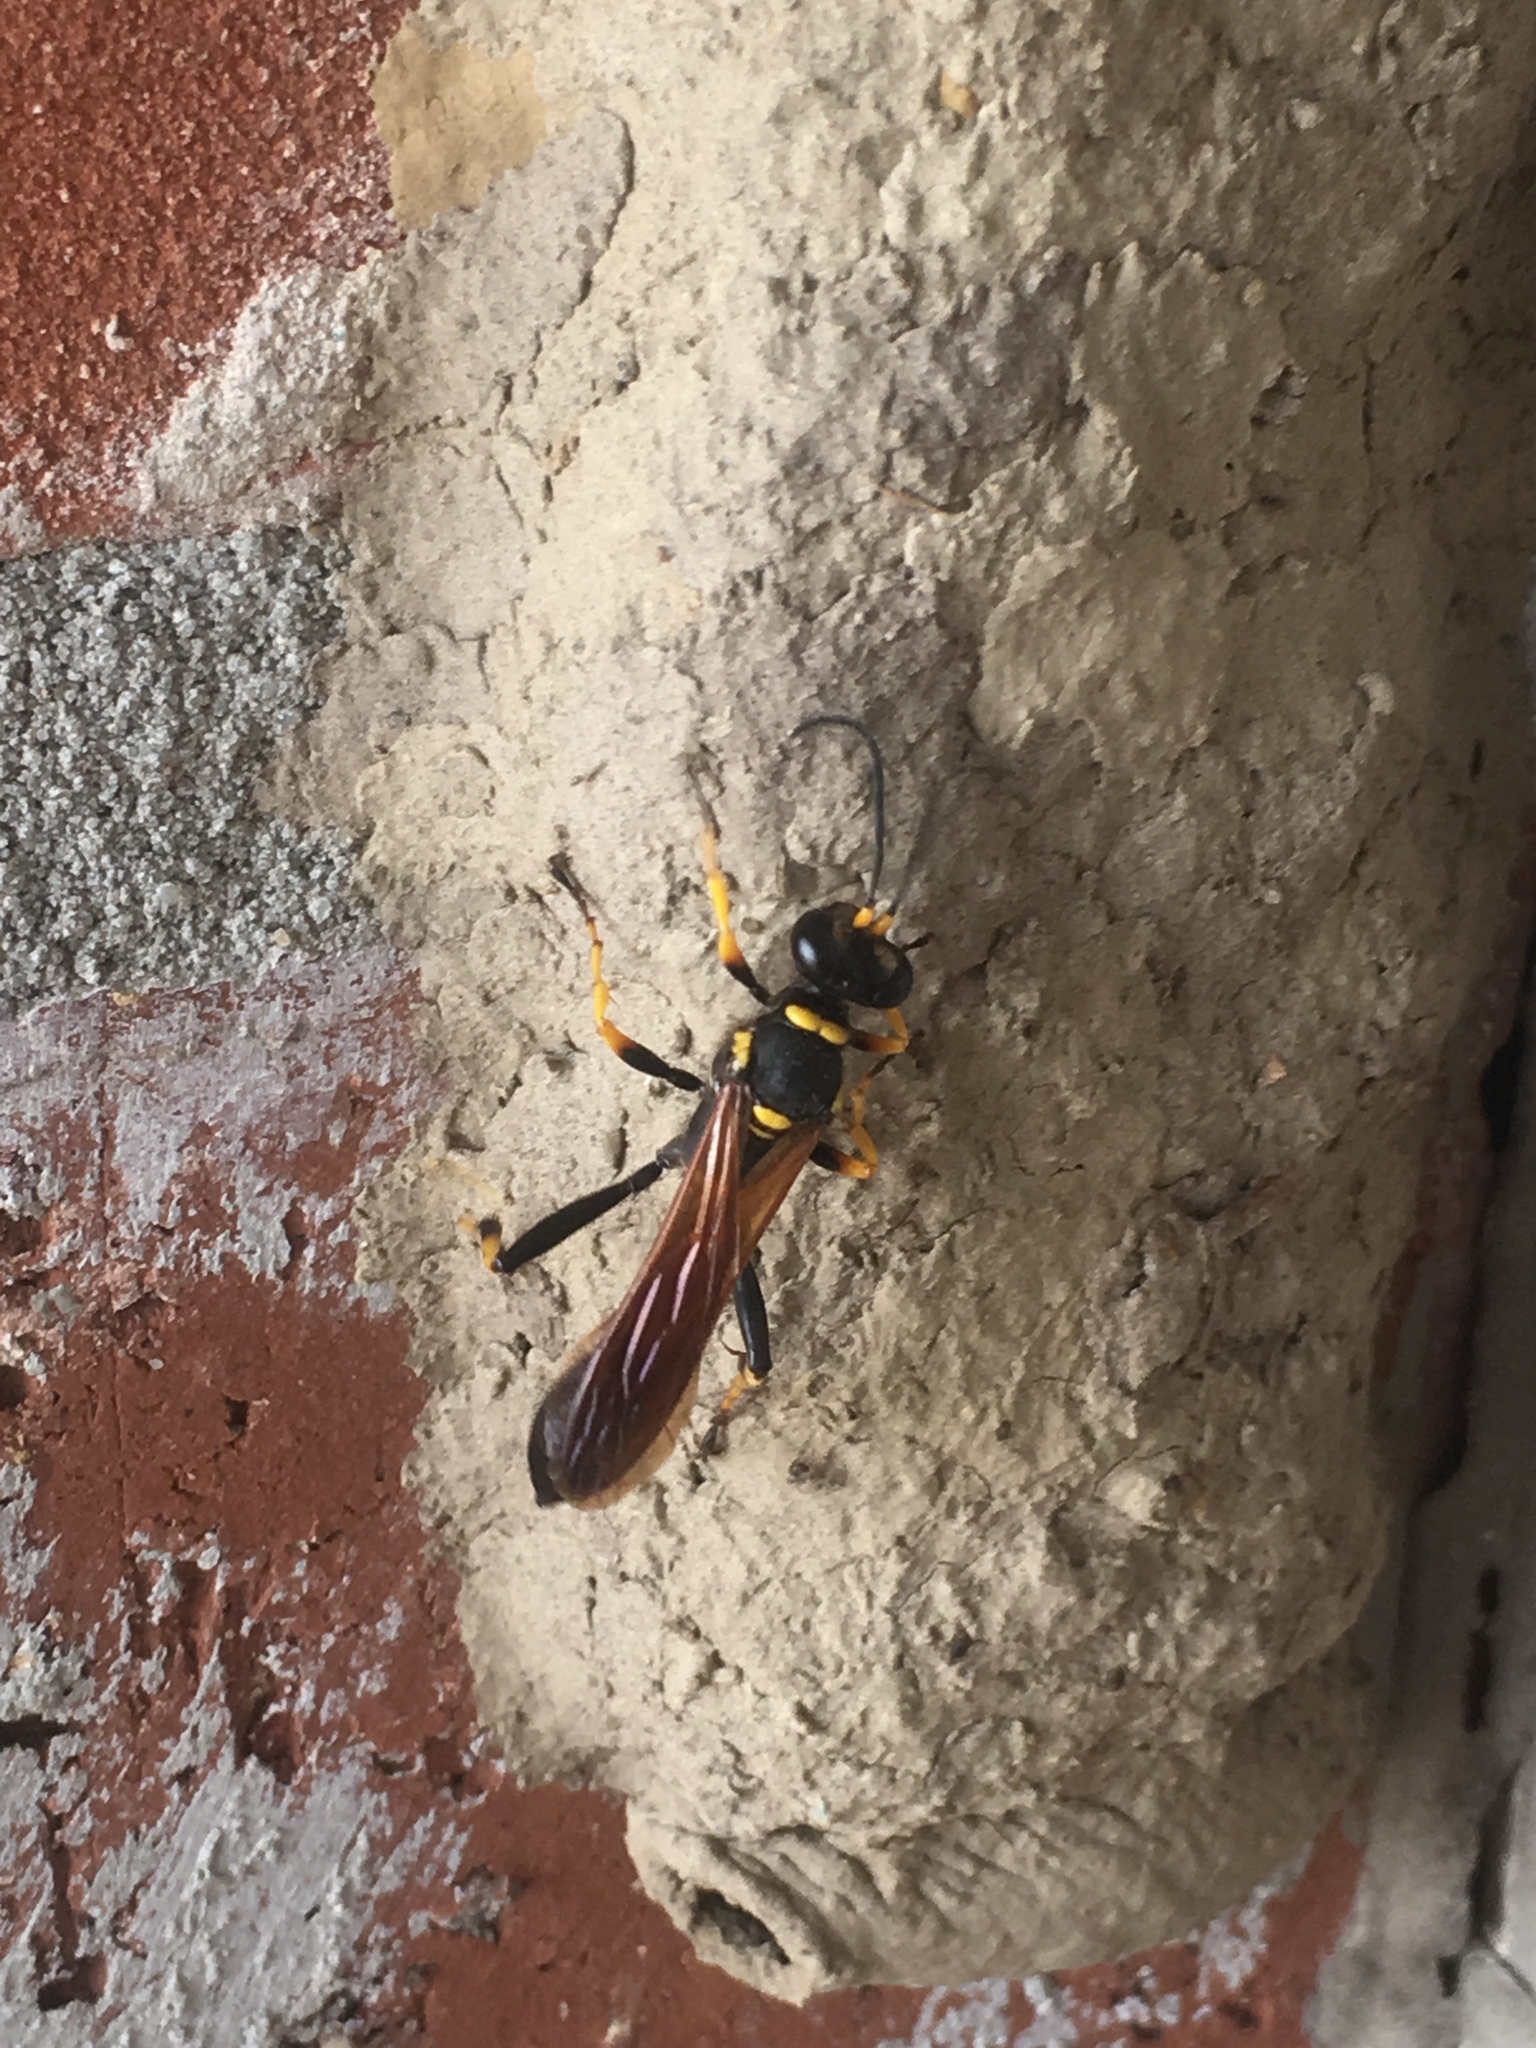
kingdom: Animalia
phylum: Arthropoda
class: Insecta
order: Hymenoptera
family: Sphecidae
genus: Sceliphron
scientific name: Sceliphron caementarium
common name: Mud dauber
